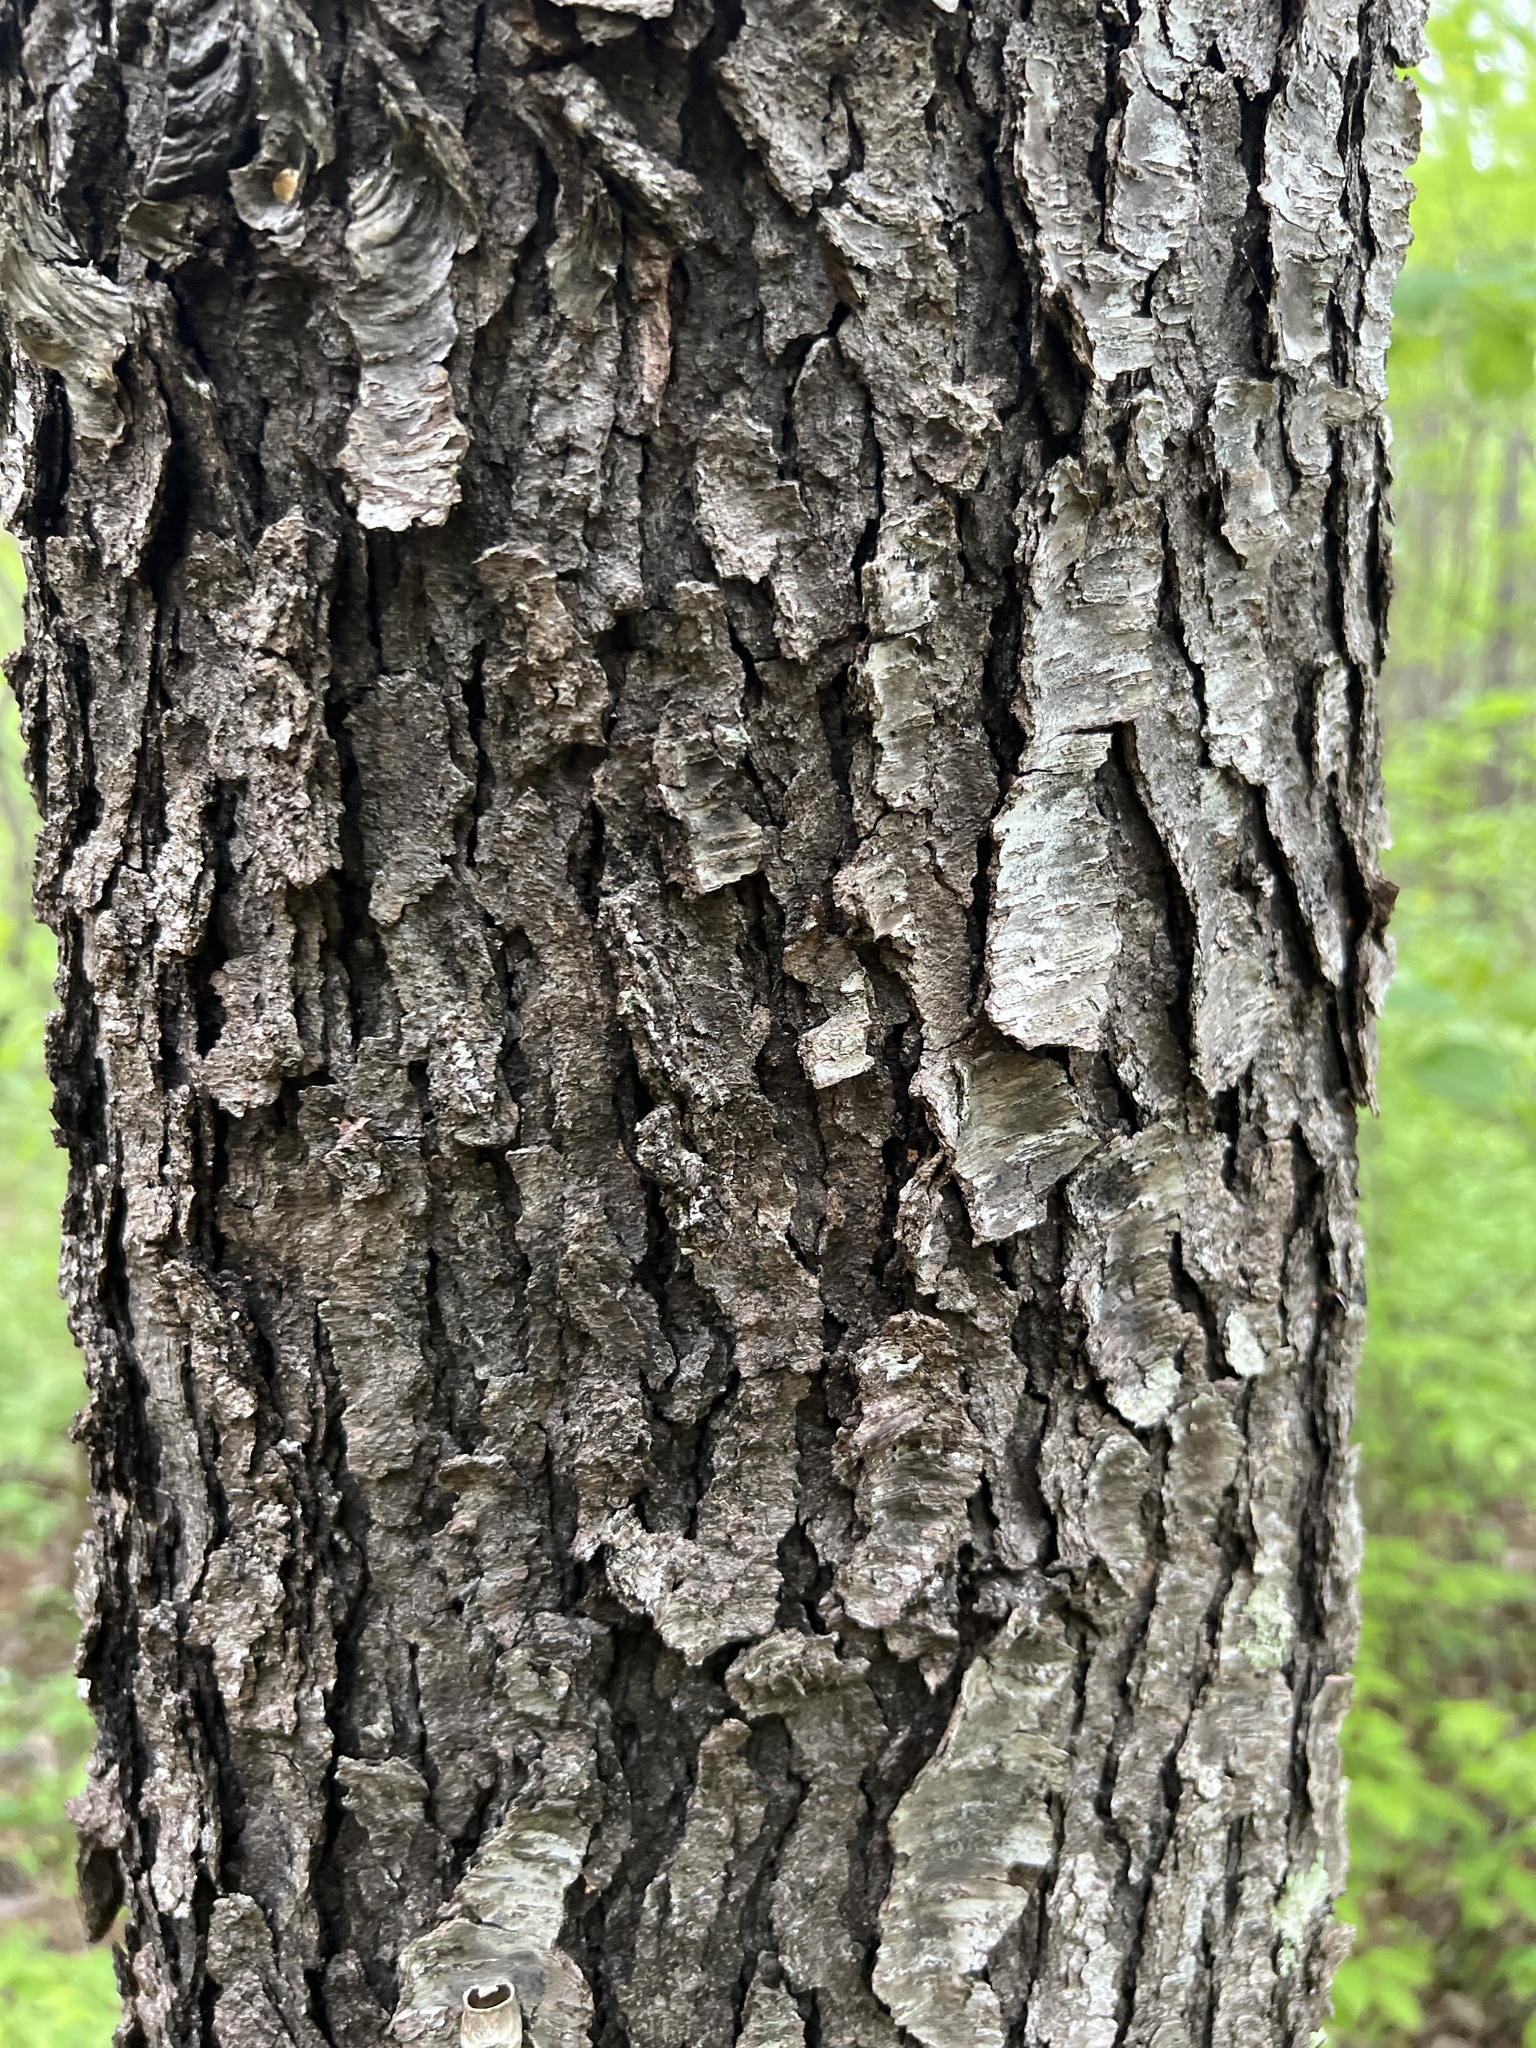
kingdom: Plantae
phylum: Tracheophyta
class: Magnoliopsida
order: Rosales
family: Rosaceae
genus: Prunus
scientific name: Prunus serotina
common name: Black cherry
